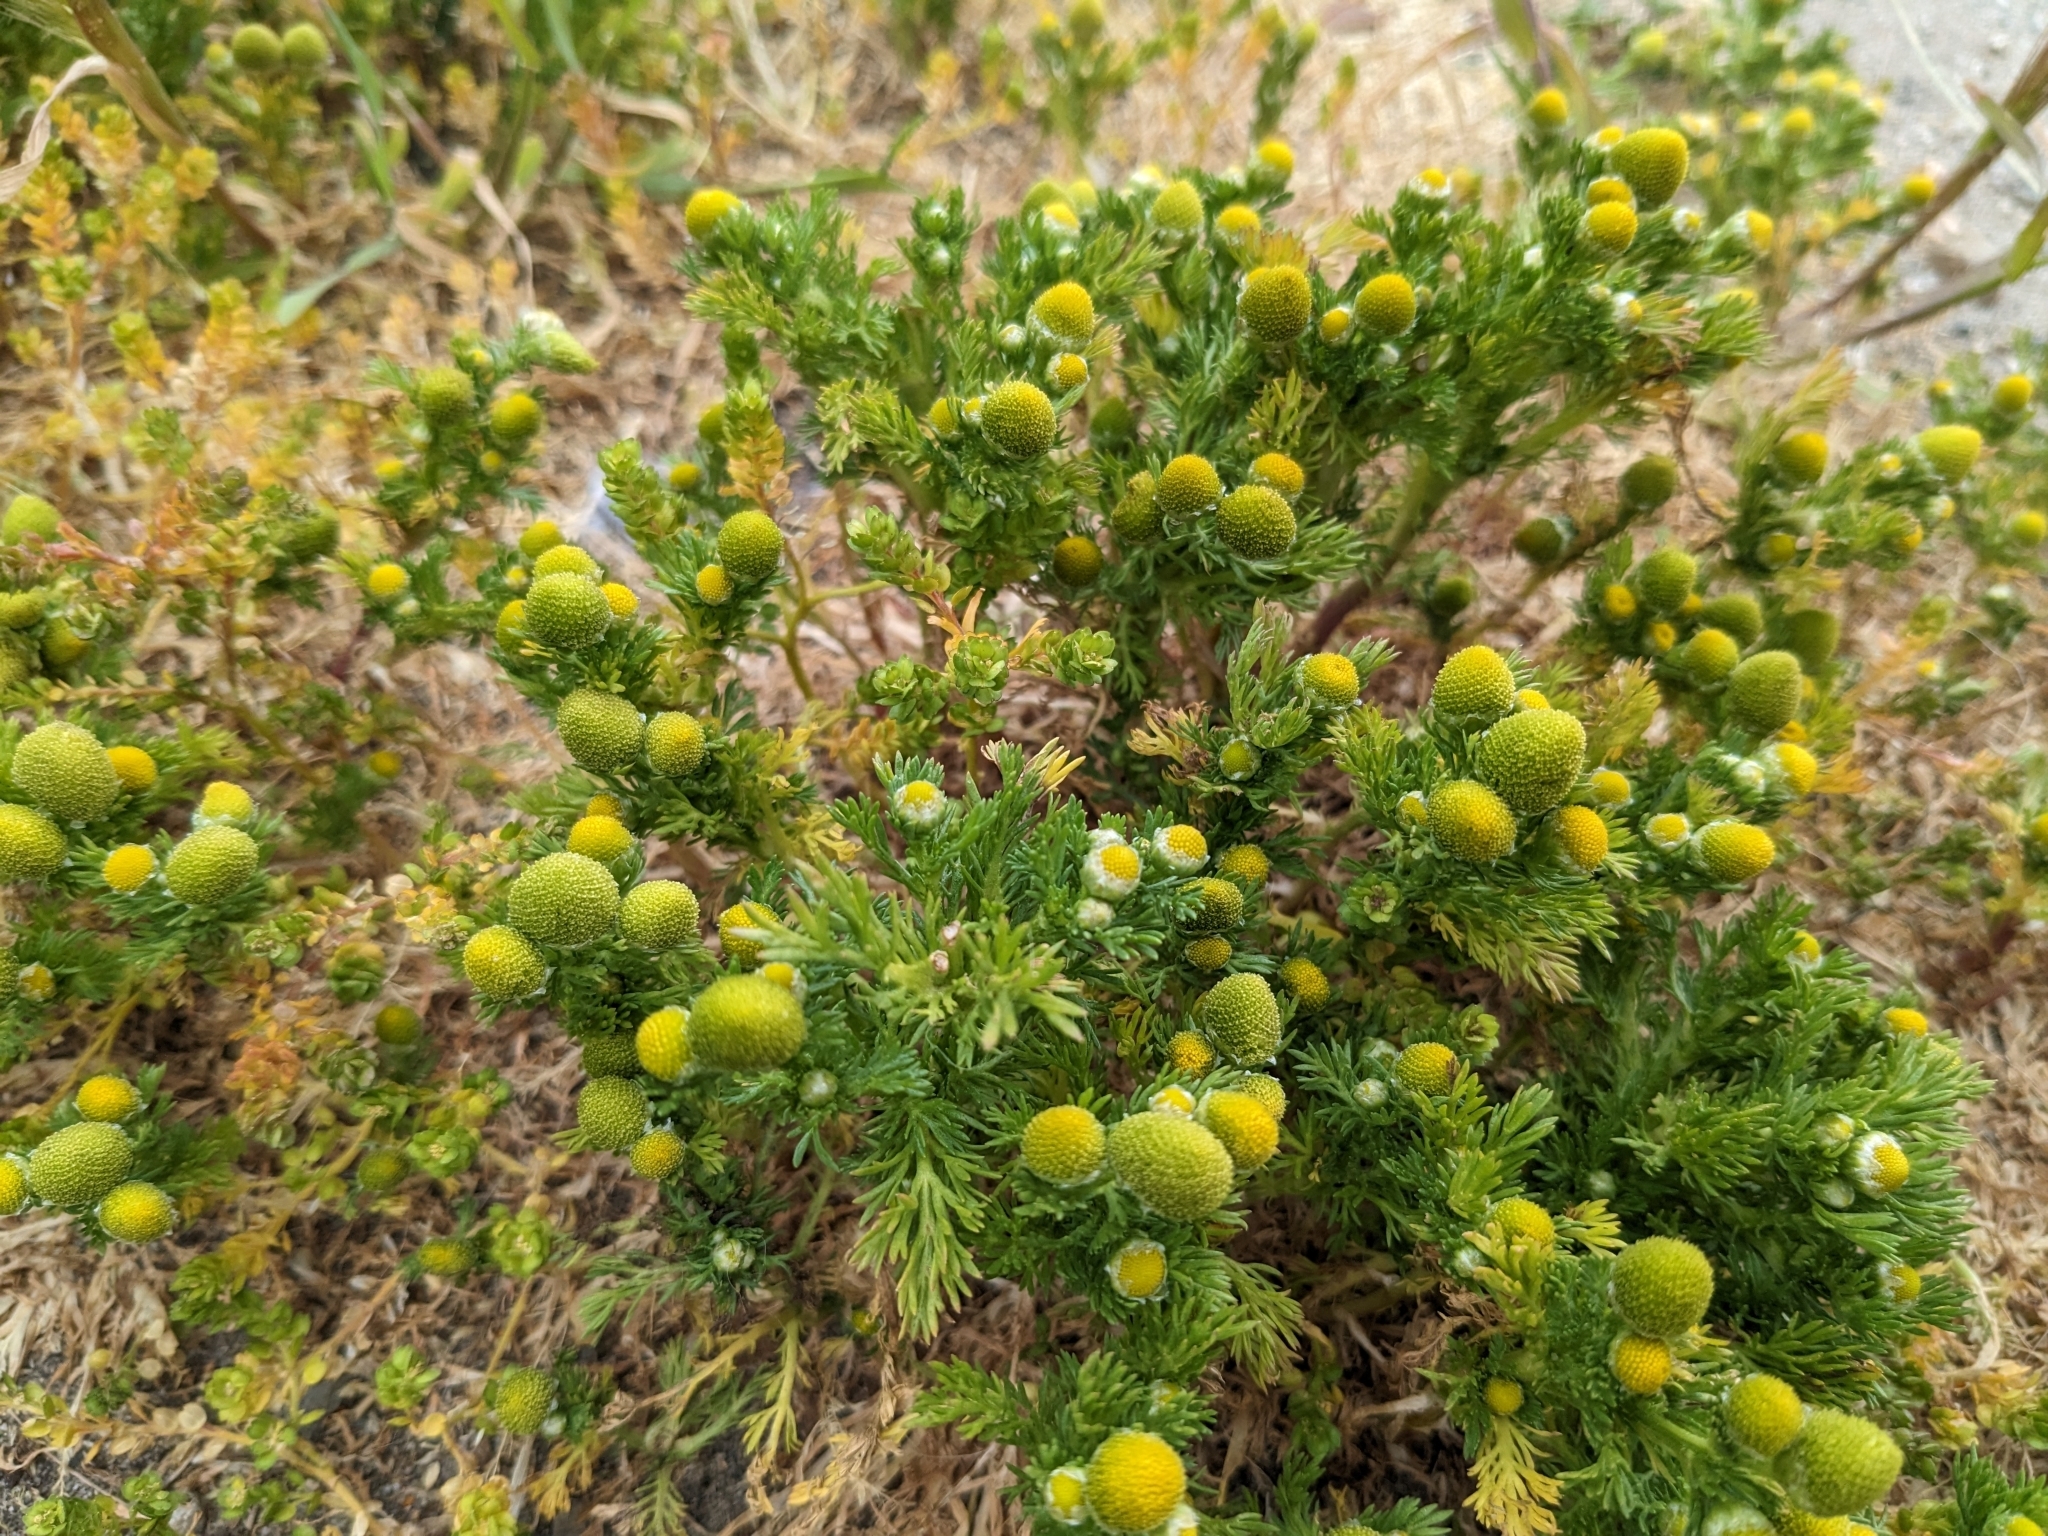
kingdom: Plantae
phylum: Tracheophyta
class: Magnoliopsida
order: Asterales
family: Asteraceae
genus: Matricaria
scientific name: Matricaria discoidea
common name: Disc mayweed
